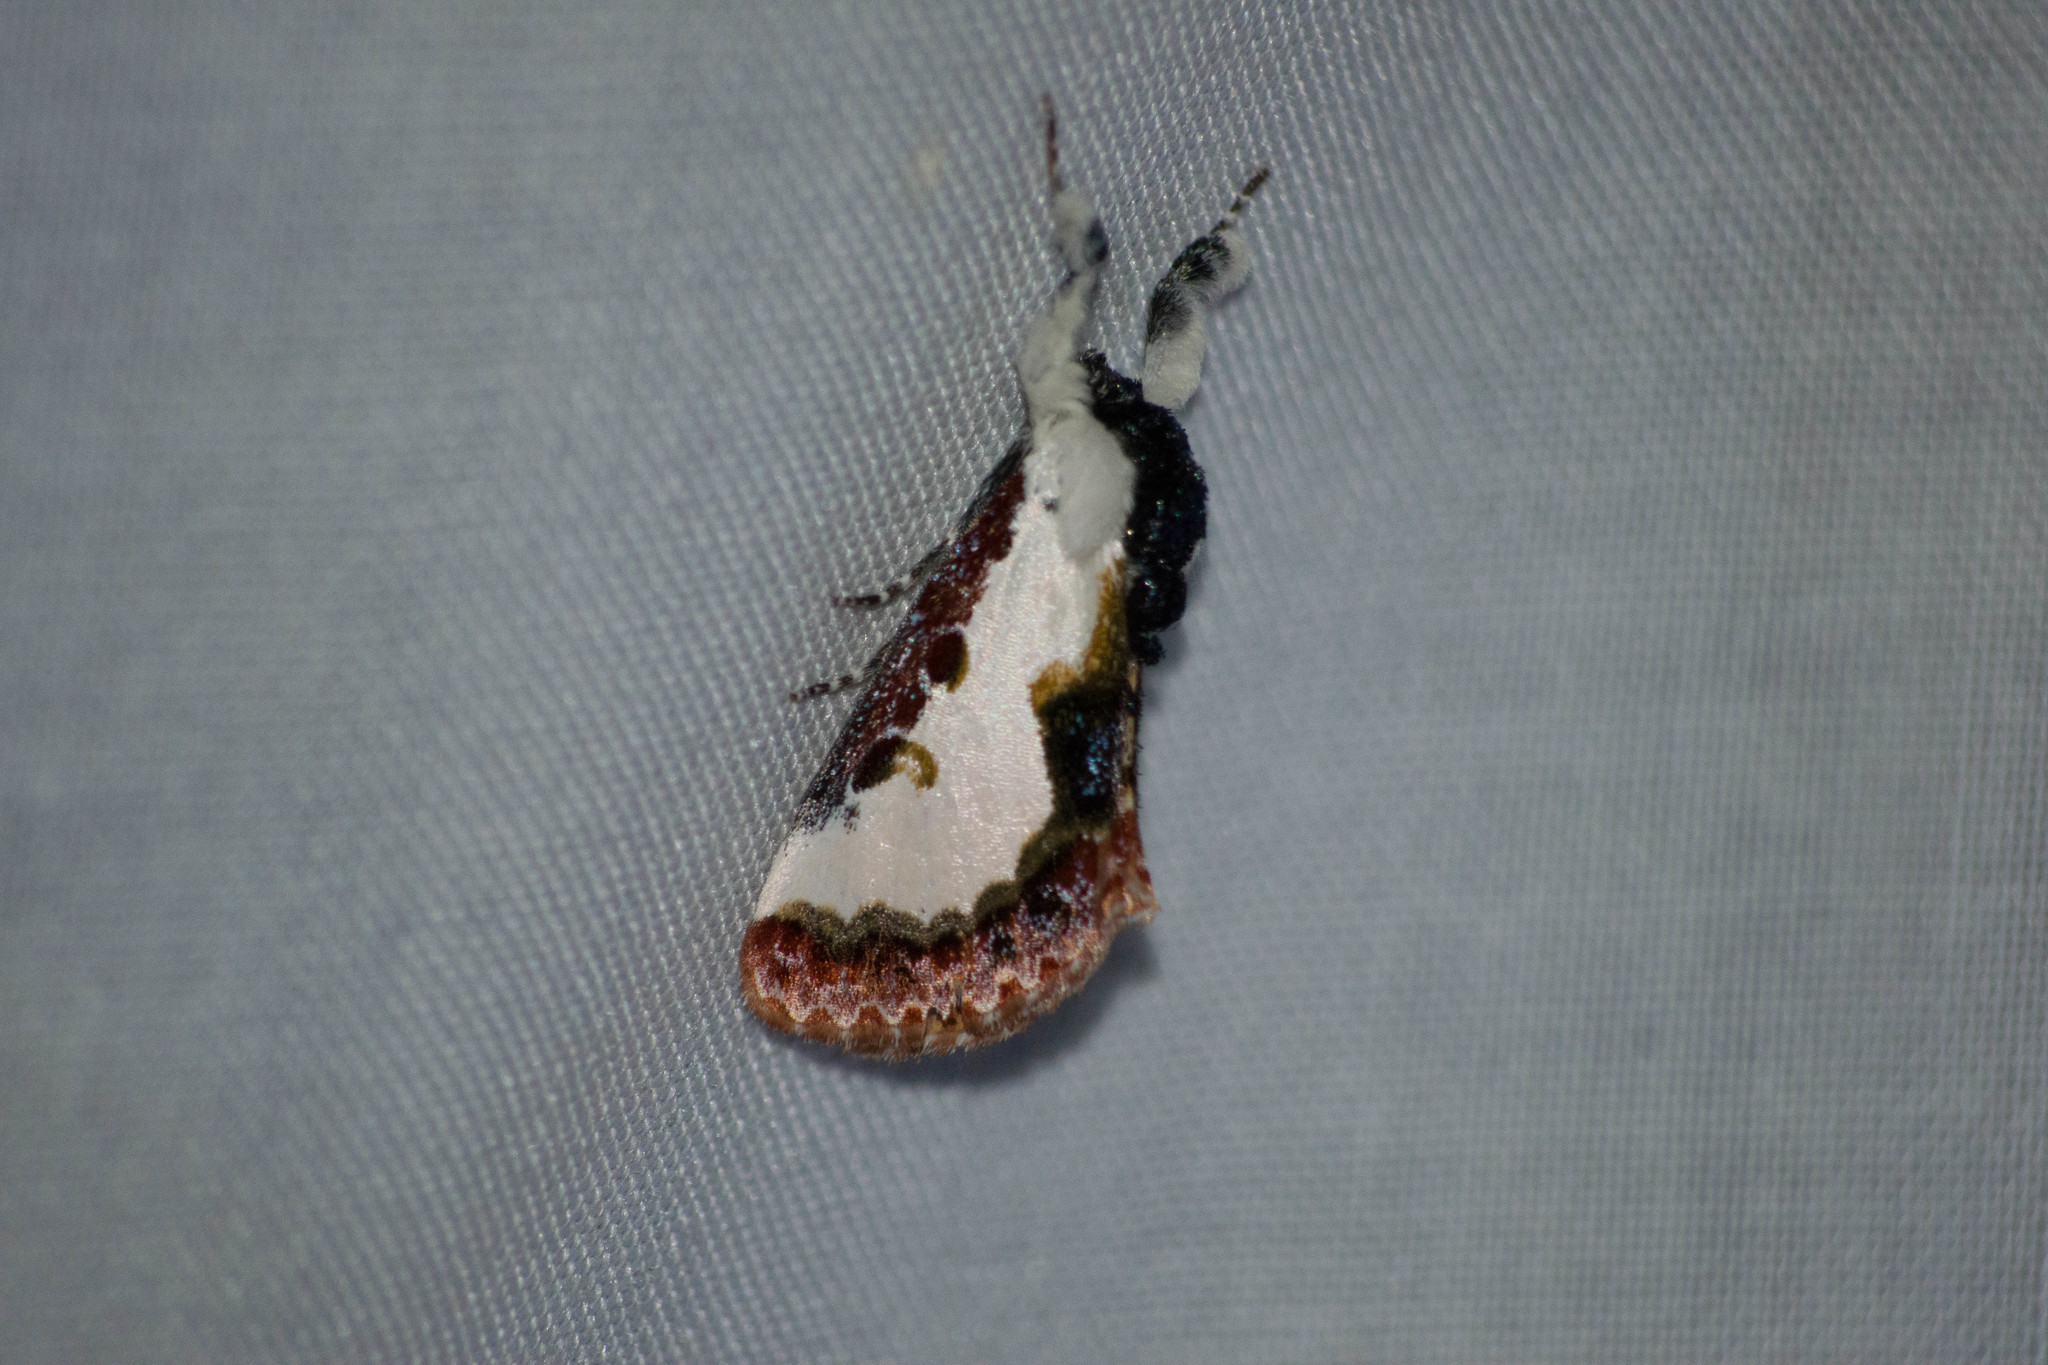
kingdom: Animalia
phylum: Arthropoda
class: Insecta
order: Lepidoptera
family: Noctuidae
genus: Eudryas
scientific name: Eudryas unio
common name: Pearly wood-nymph
